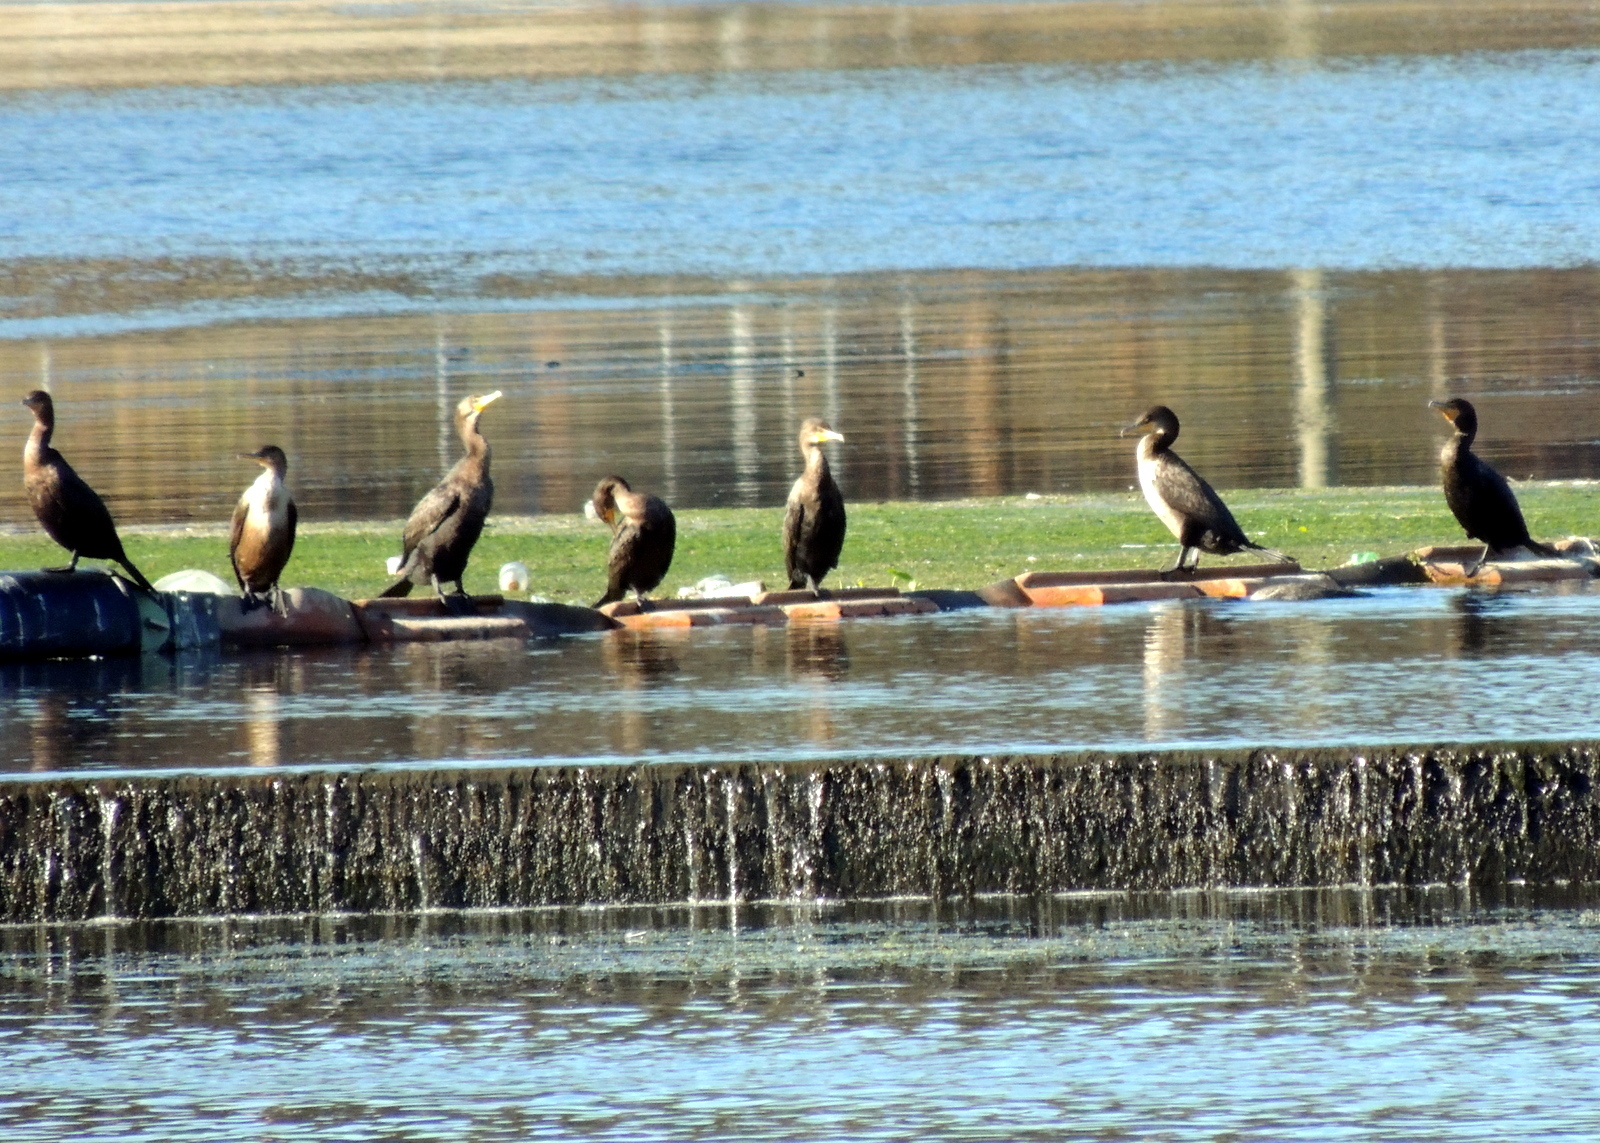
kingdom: Animalia
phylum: Chordata
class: Aves
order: Suliformes
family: Phalacrocoracidae
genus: Phalacrocorax
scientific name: Phalacrocorax auritus
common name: Double-crested cormorant
